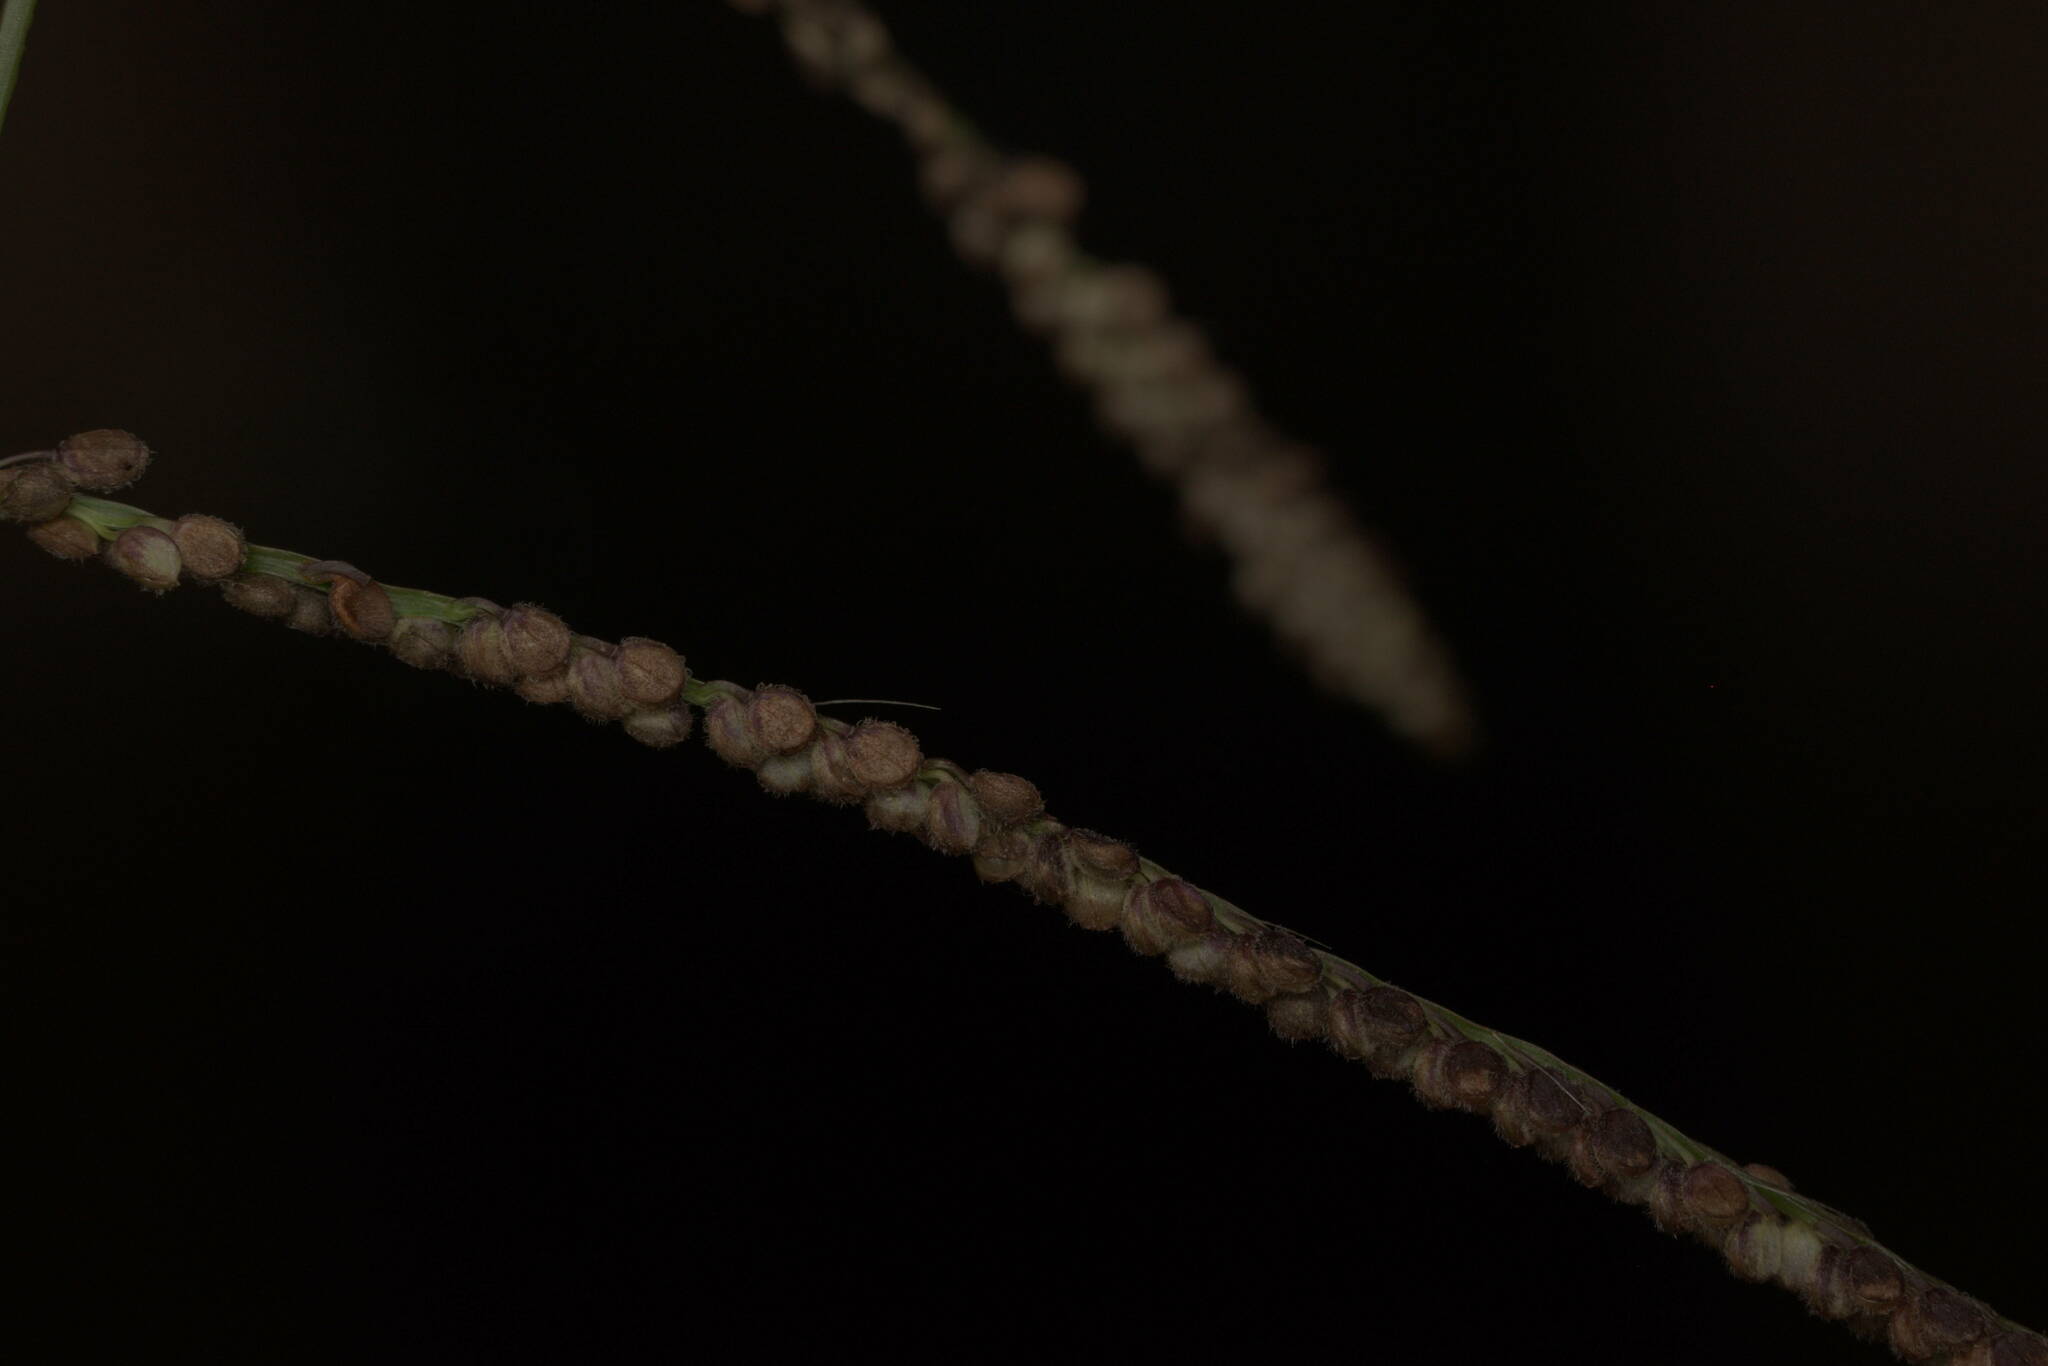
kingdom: Plantae
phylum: Tracheophyta
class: Liliopsida
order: Poales
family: Poaceae
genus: Paspalum
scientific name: Paspalum paniculatum
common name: Arrocillo
